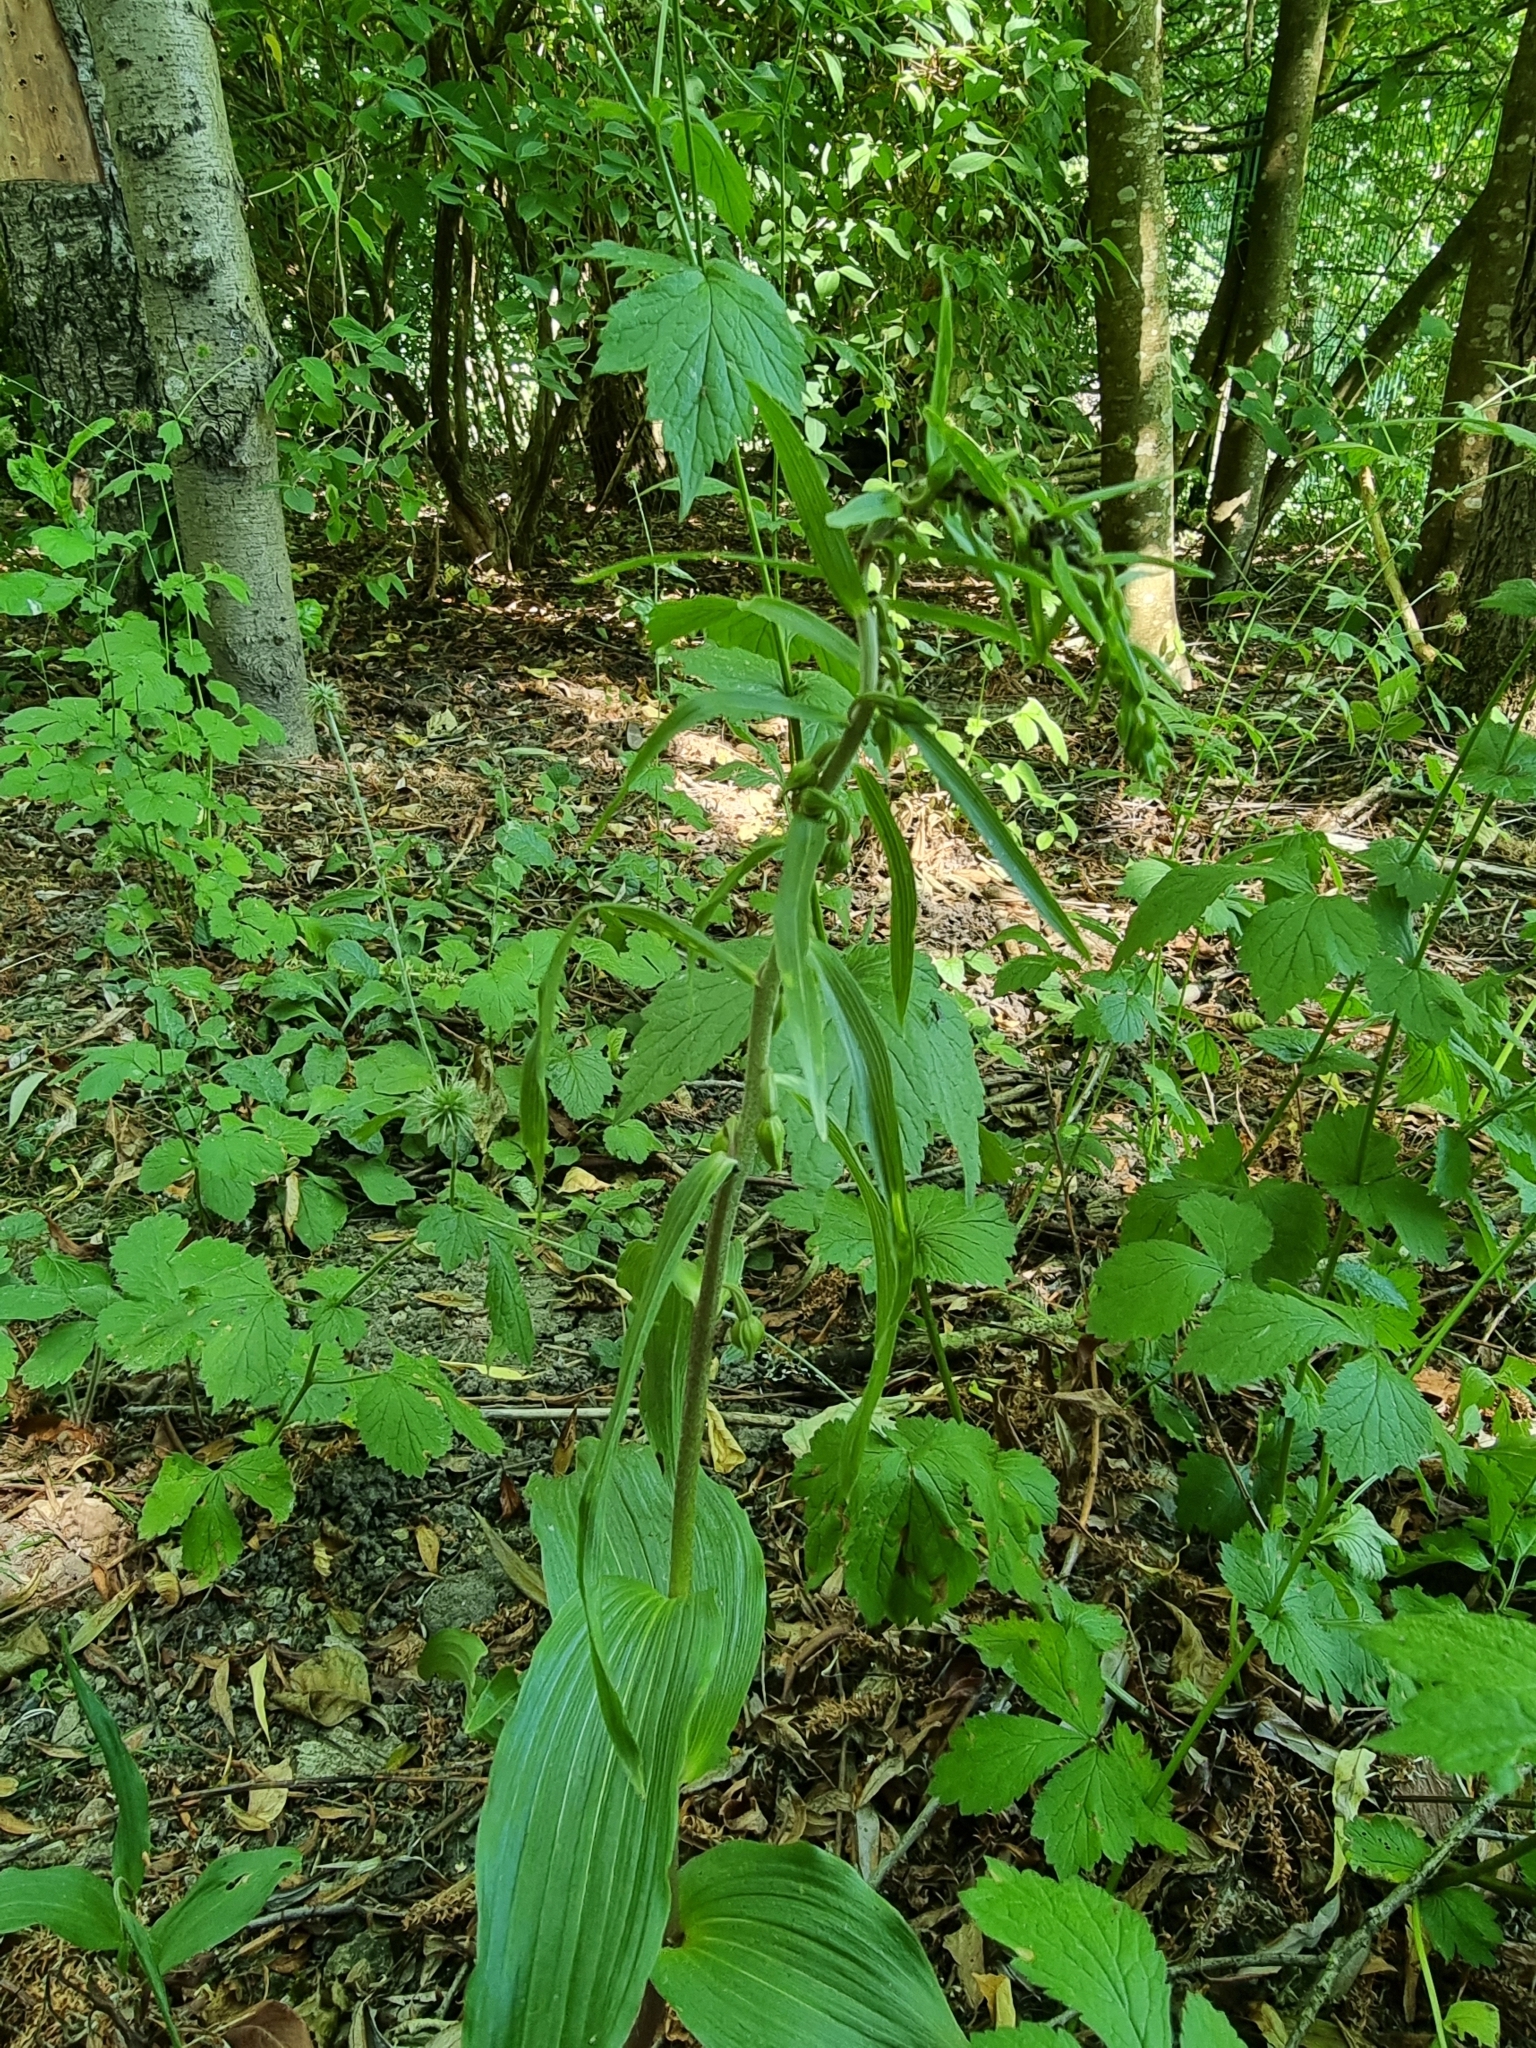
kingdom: Plantae
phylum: Tracheophyta
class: Liliopsida
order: Asparagales
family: Orchidaceae
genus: Epipactis
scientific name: Epipactis helleborine
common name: Broad-leaved helleborine
